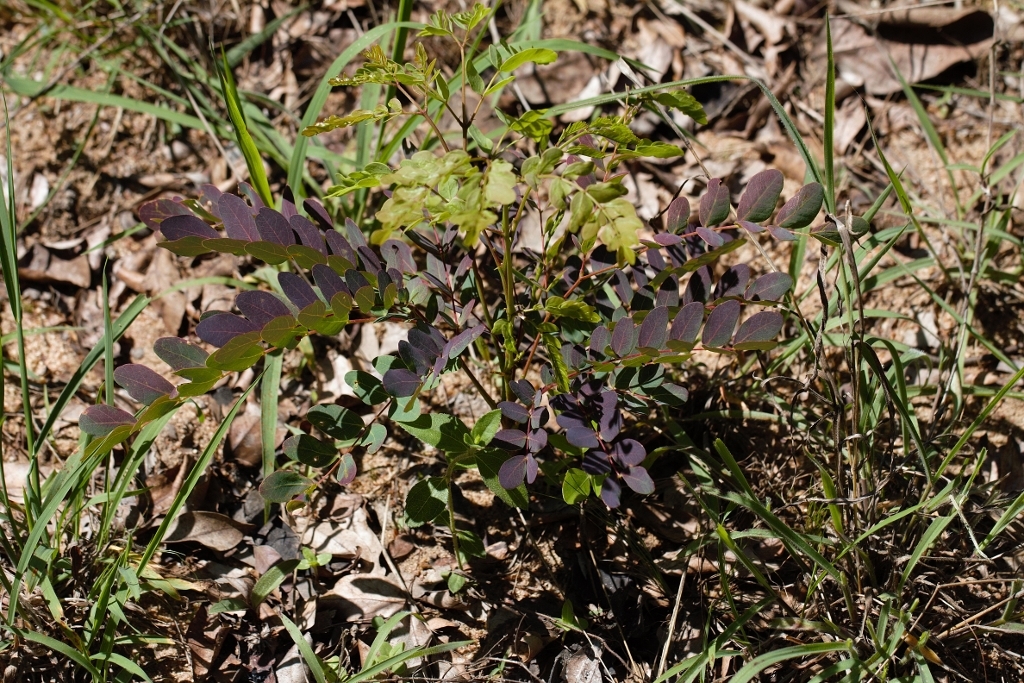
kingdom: Plantae
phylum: Tracheophyta
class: Magnoliopsida
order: Fabales
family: Fabaceae
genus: Albizia
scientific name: Albizia antunesiana
